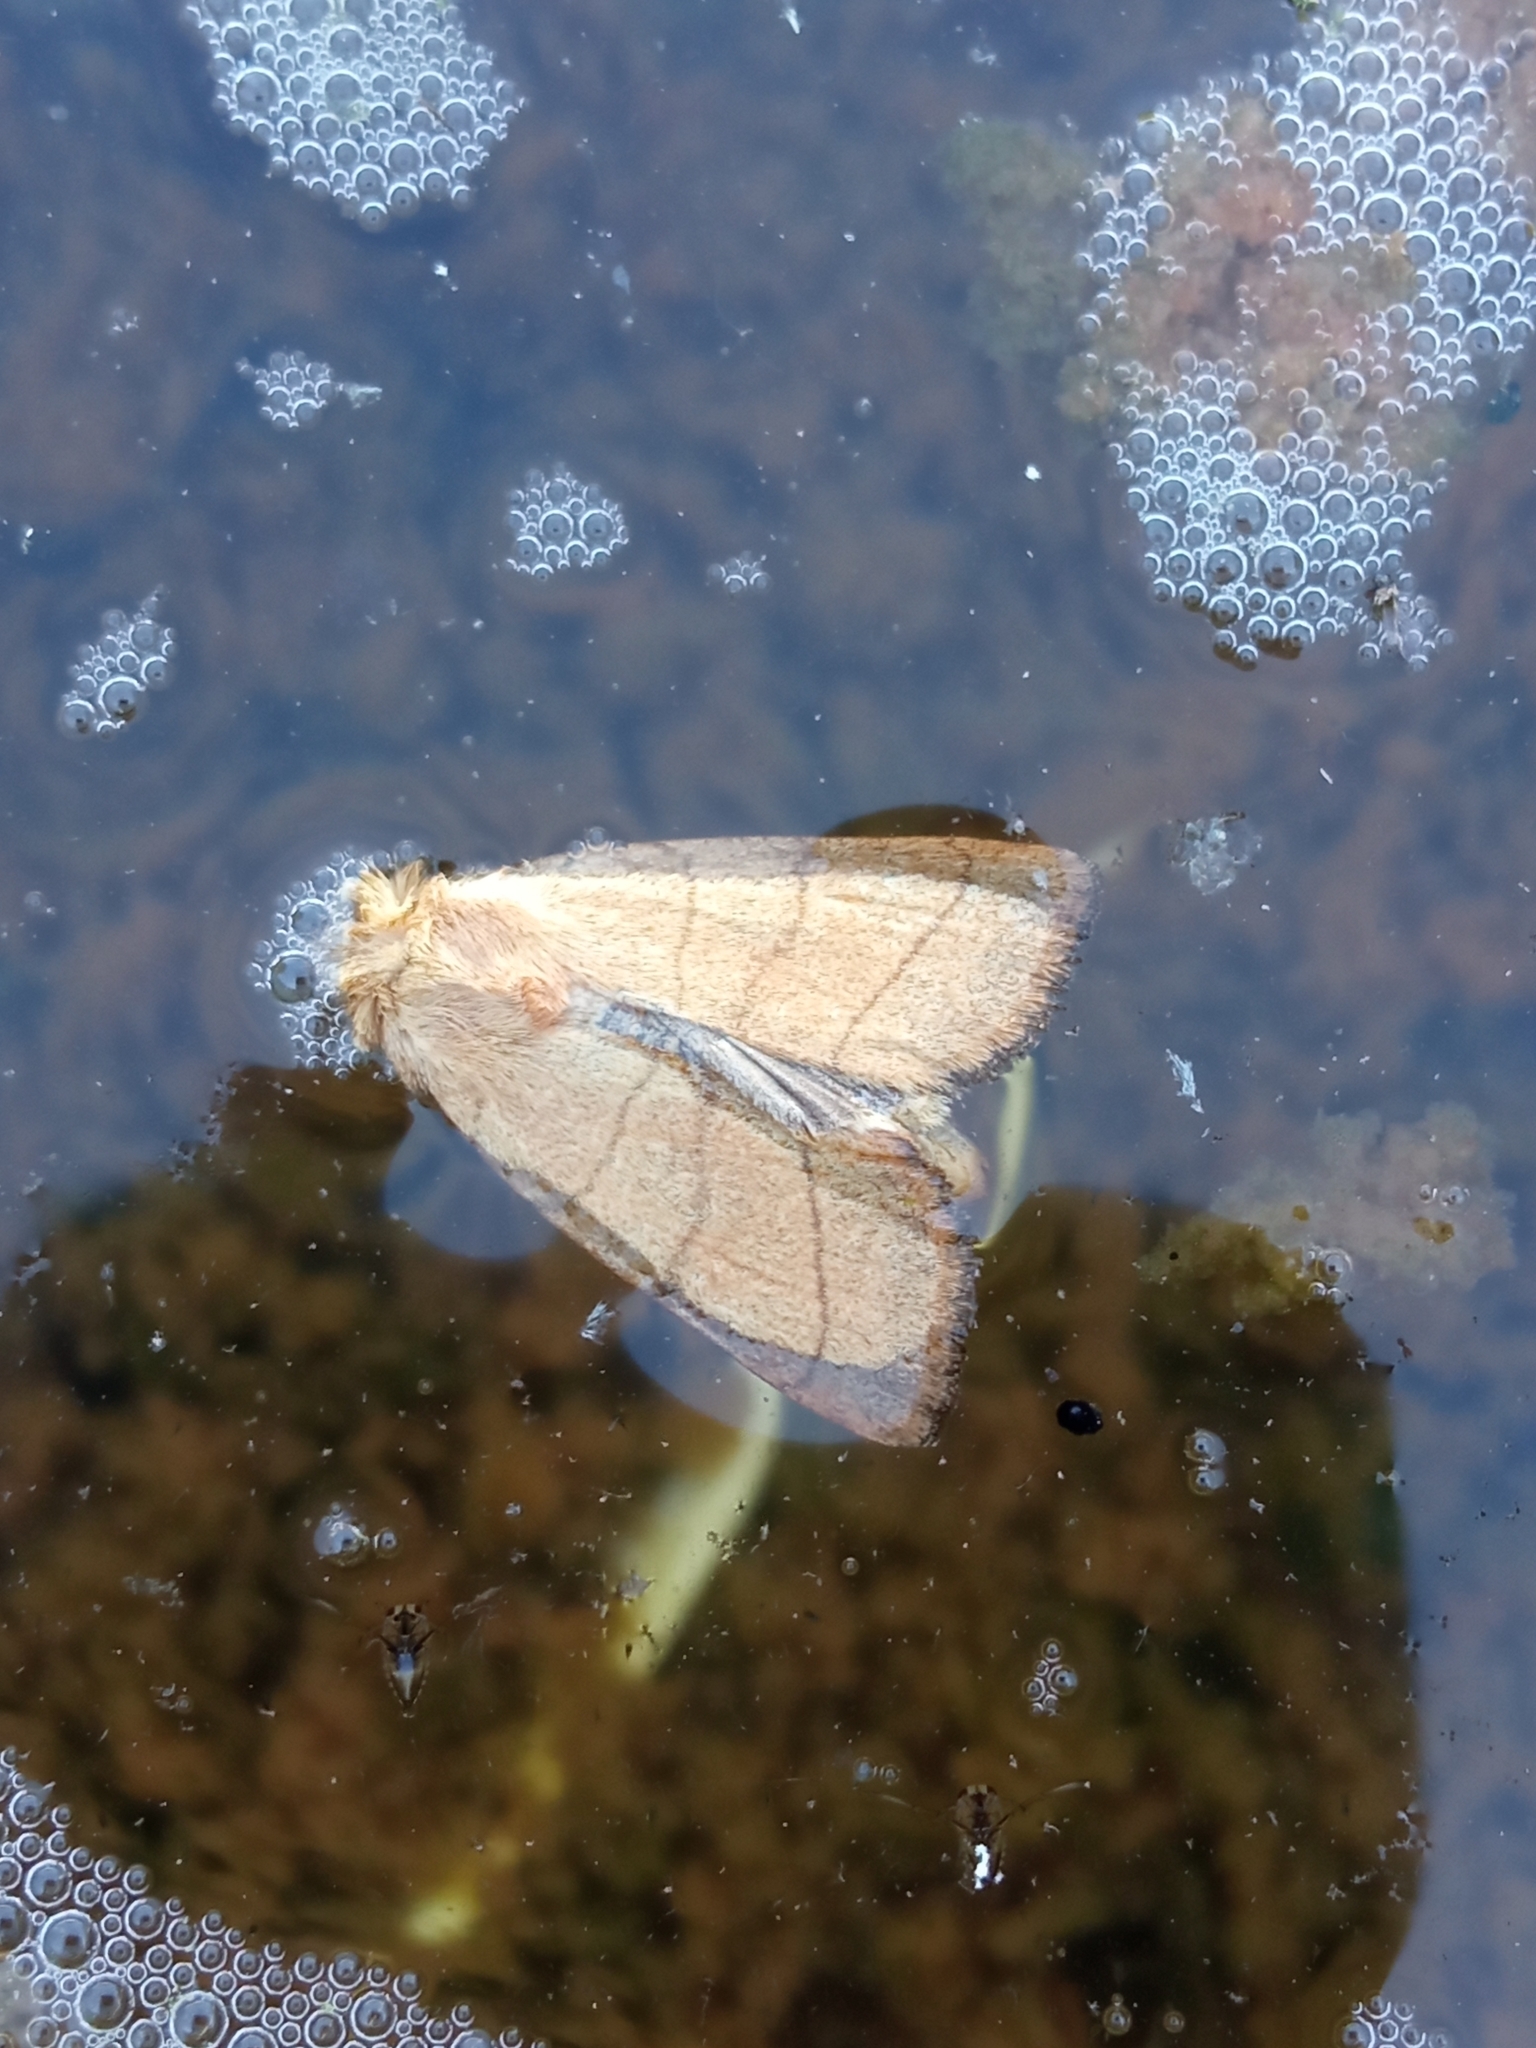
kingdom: Animalia
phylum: Arthropoda
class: Insecta
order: Lepidoptera
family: Noctuidae
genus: Charanyca
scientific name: Charanyca trigrammica
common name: Treble lines
